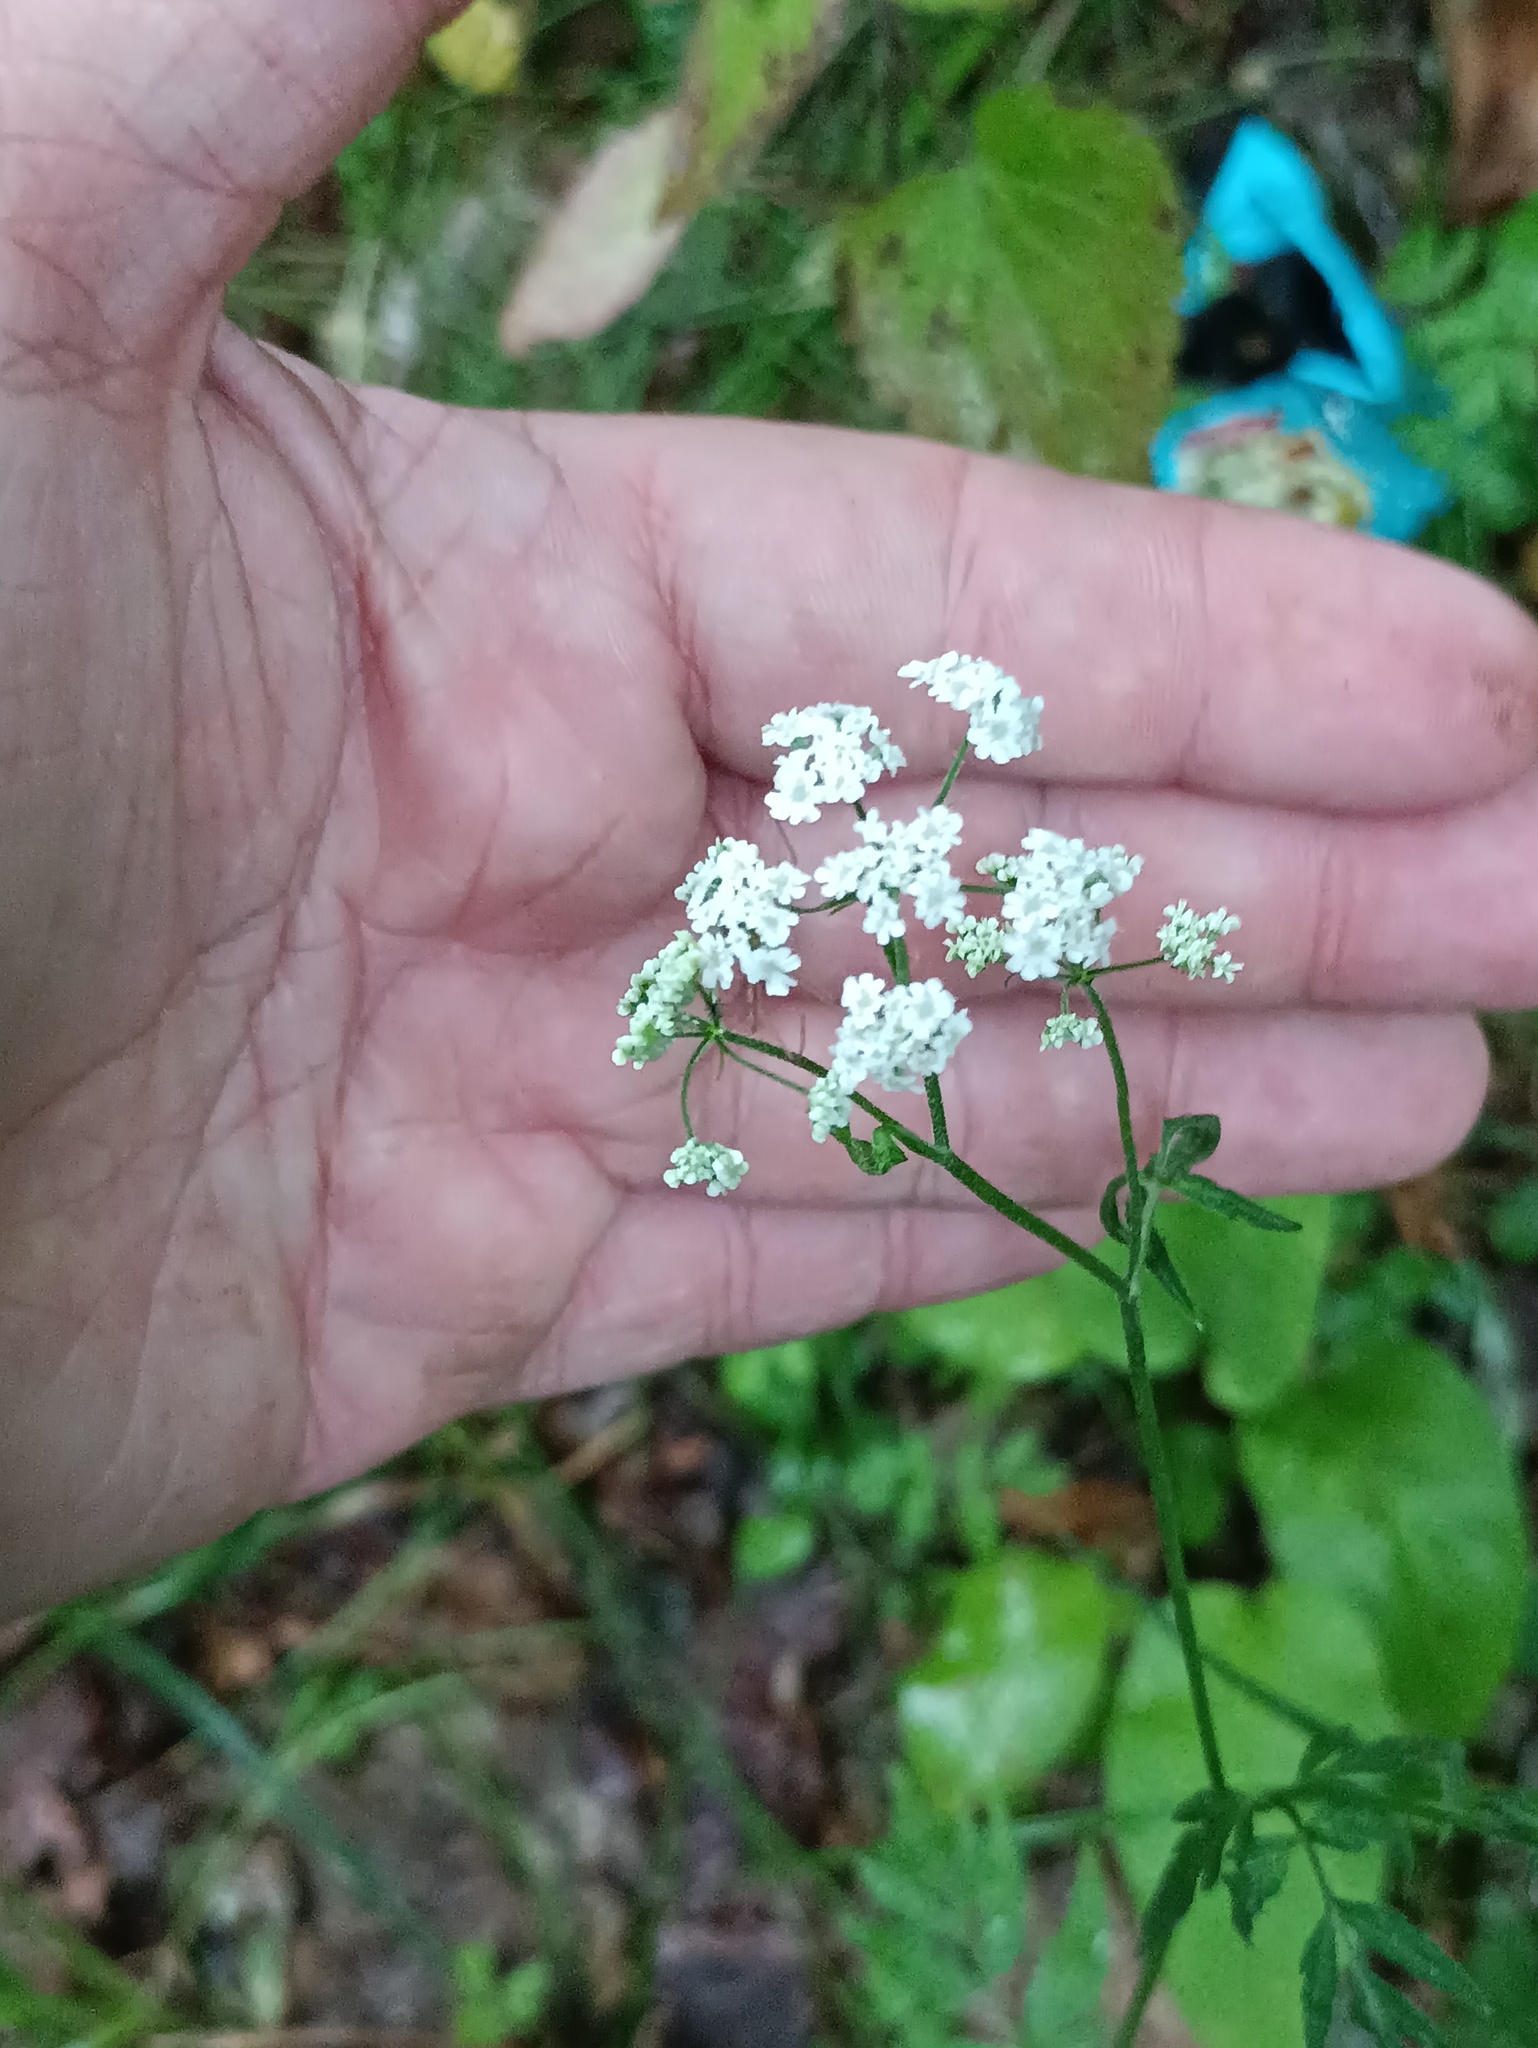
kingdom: Plantae
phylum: Tracheophyta
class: Magnoliopsida
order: Apiales
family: Apiaceae
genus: Torilis
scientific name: Torilis japonica
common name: Upright hedge-parsley
